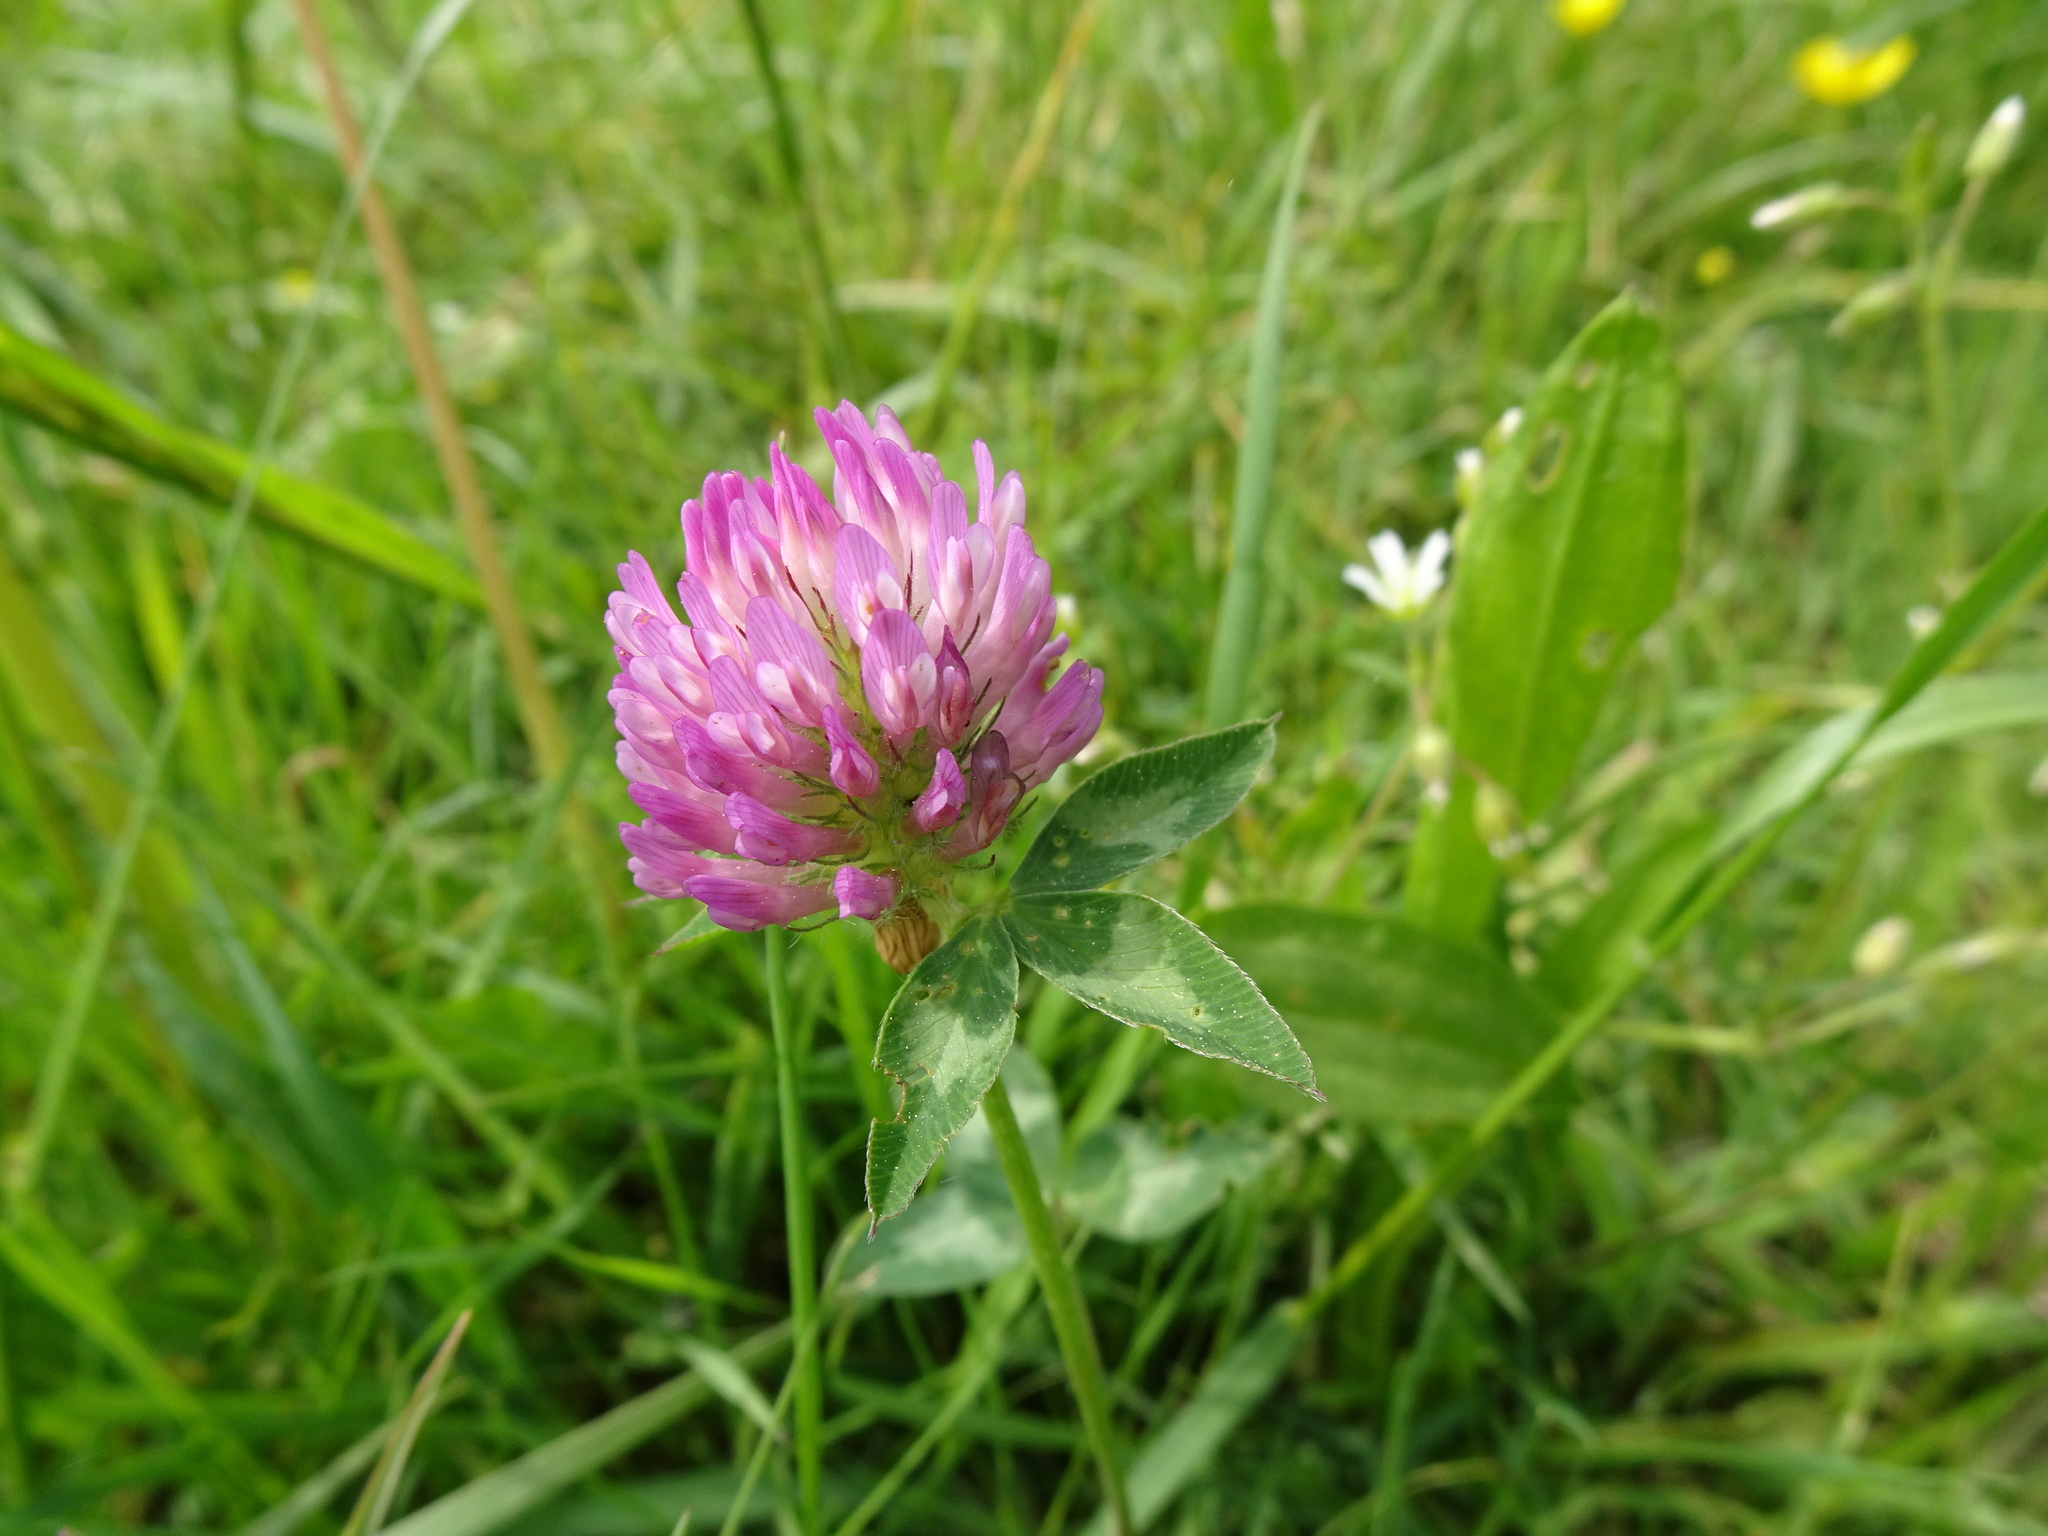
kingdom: Plantae
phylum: Tracheophyta
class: Magnoliopsida
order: Fabales
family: Fabaceae
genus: Trifolium
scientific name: Trifolium pratense
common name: Red clover
